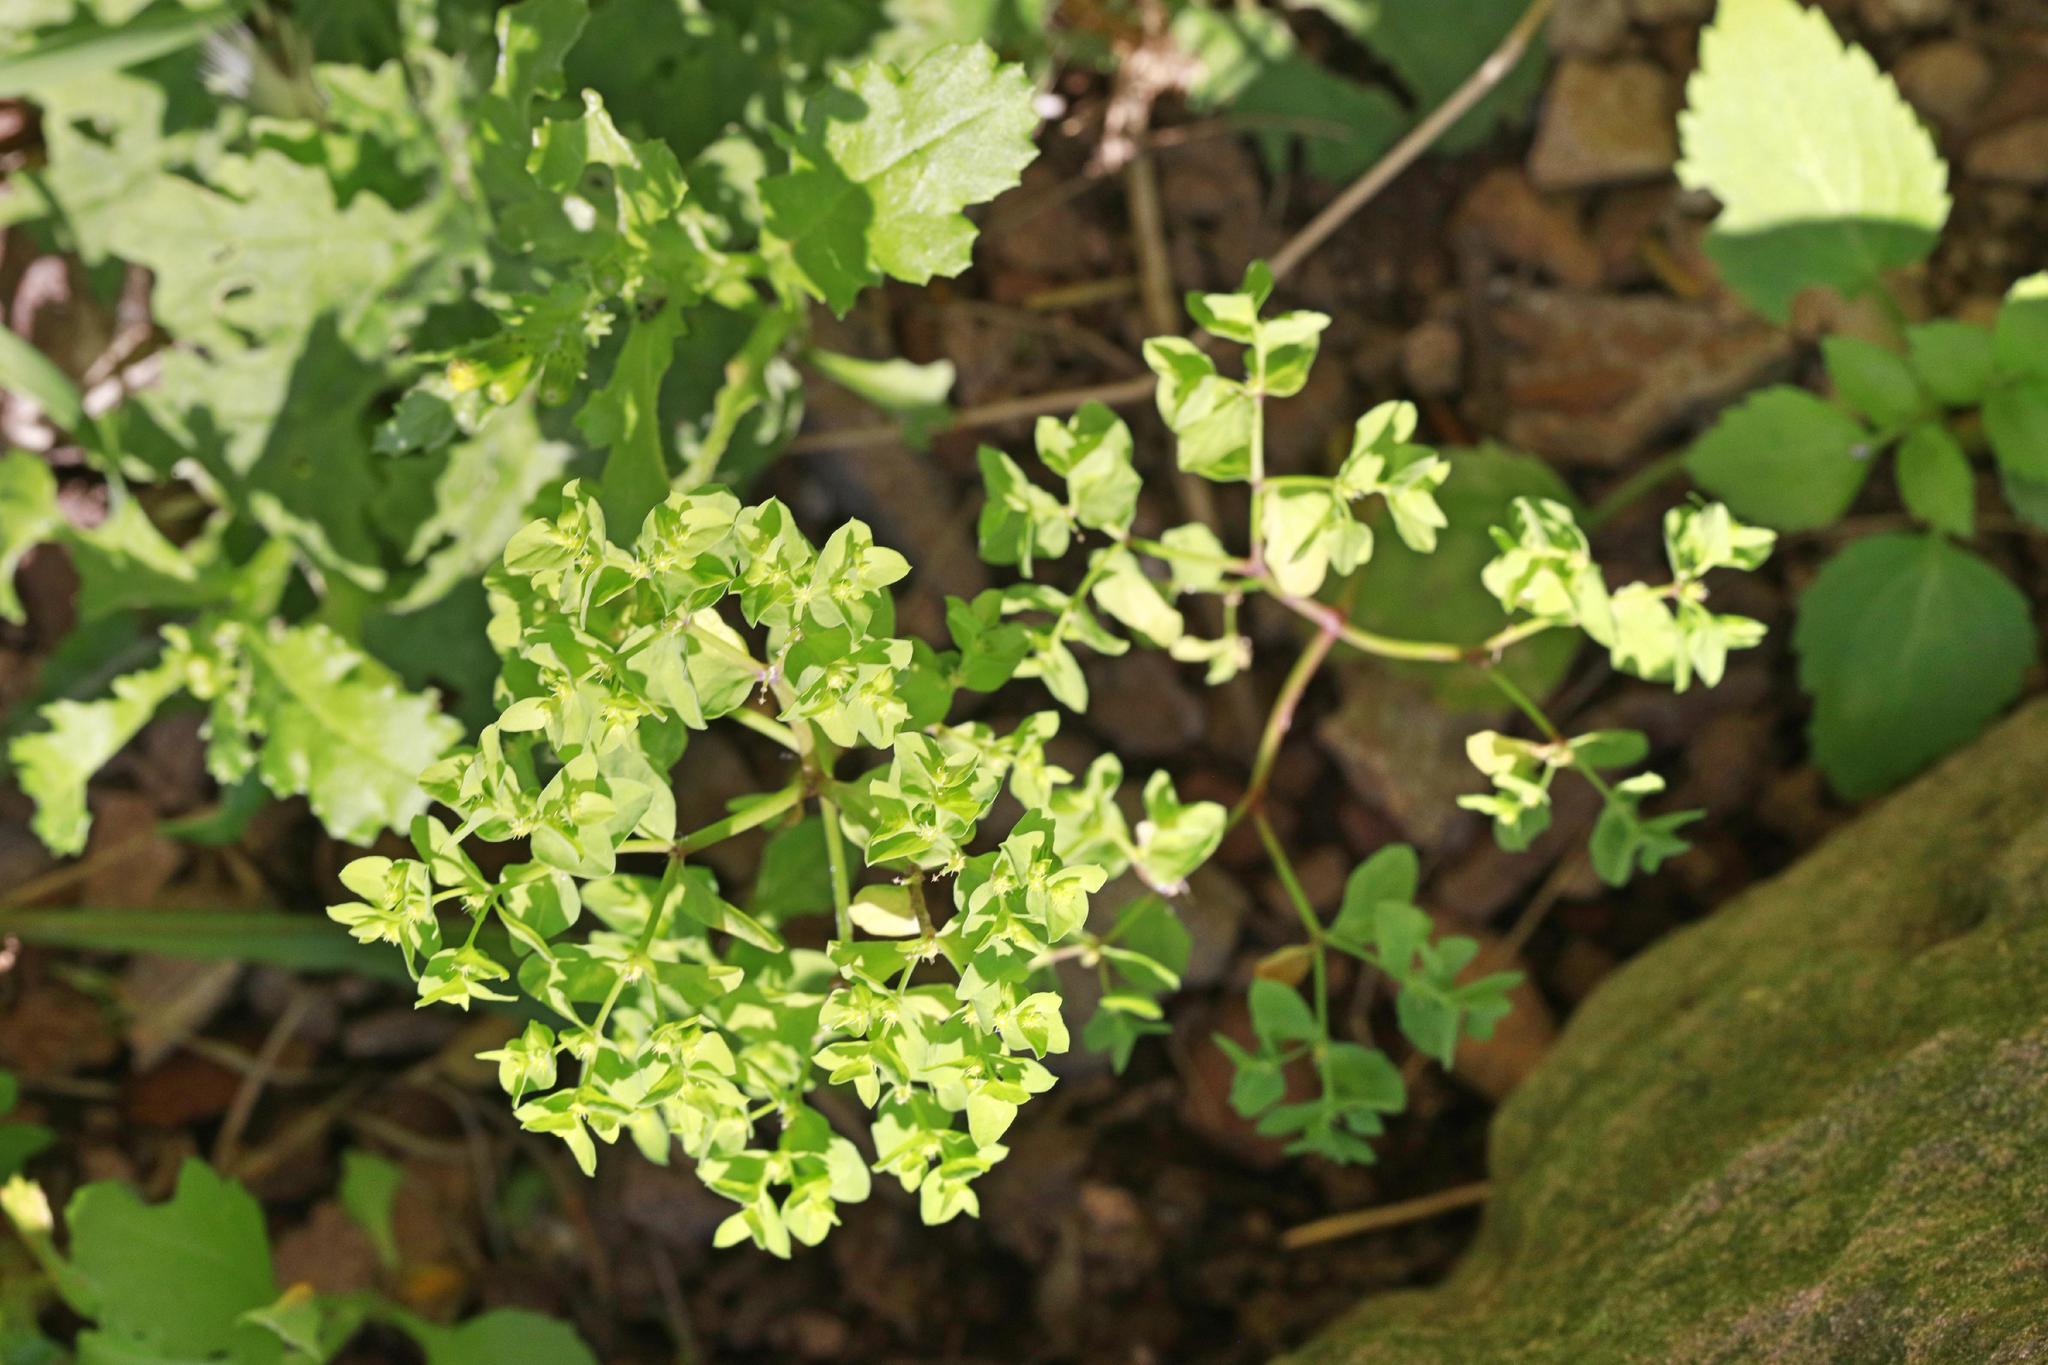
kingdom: Plantae
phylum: Tracheophyta
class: Magnoliopsida
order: Malpighiales
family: Euphorbiaceae
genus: Euphorbia
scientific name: Euphorbia peplus
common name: Petty spurge
